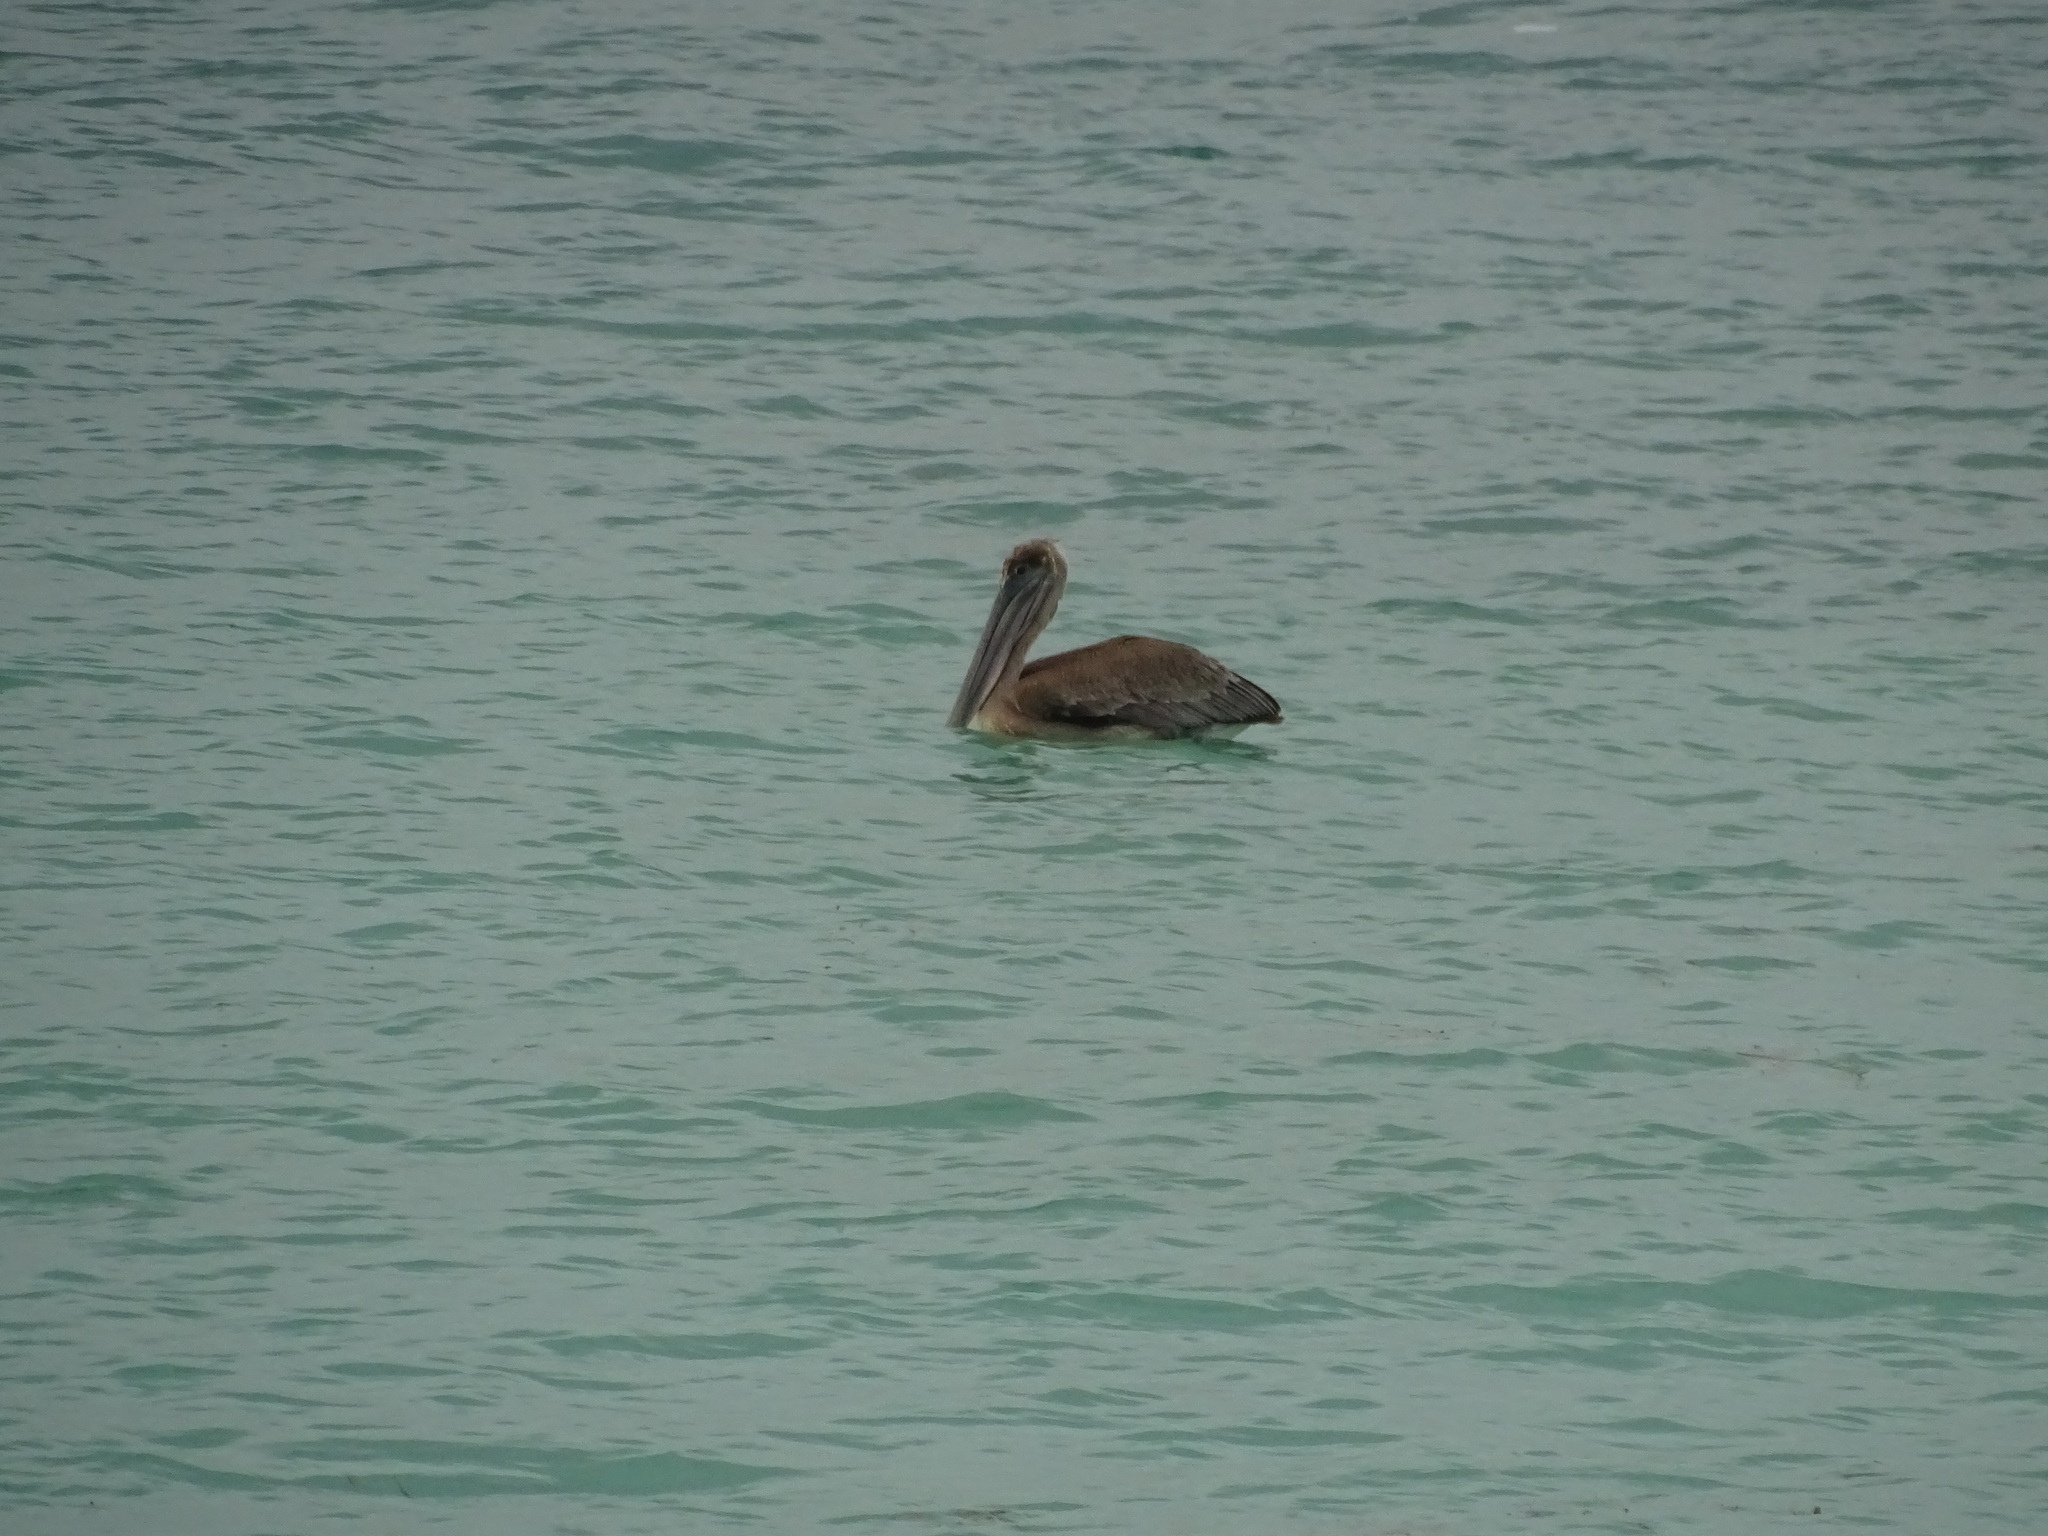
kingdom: Animalia
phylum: Chordata
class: Aves
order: Pelecaniformes
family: Pelecanidae
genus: Pelecanus
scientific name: Pelecanus occidentalis
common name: Brown pelican
